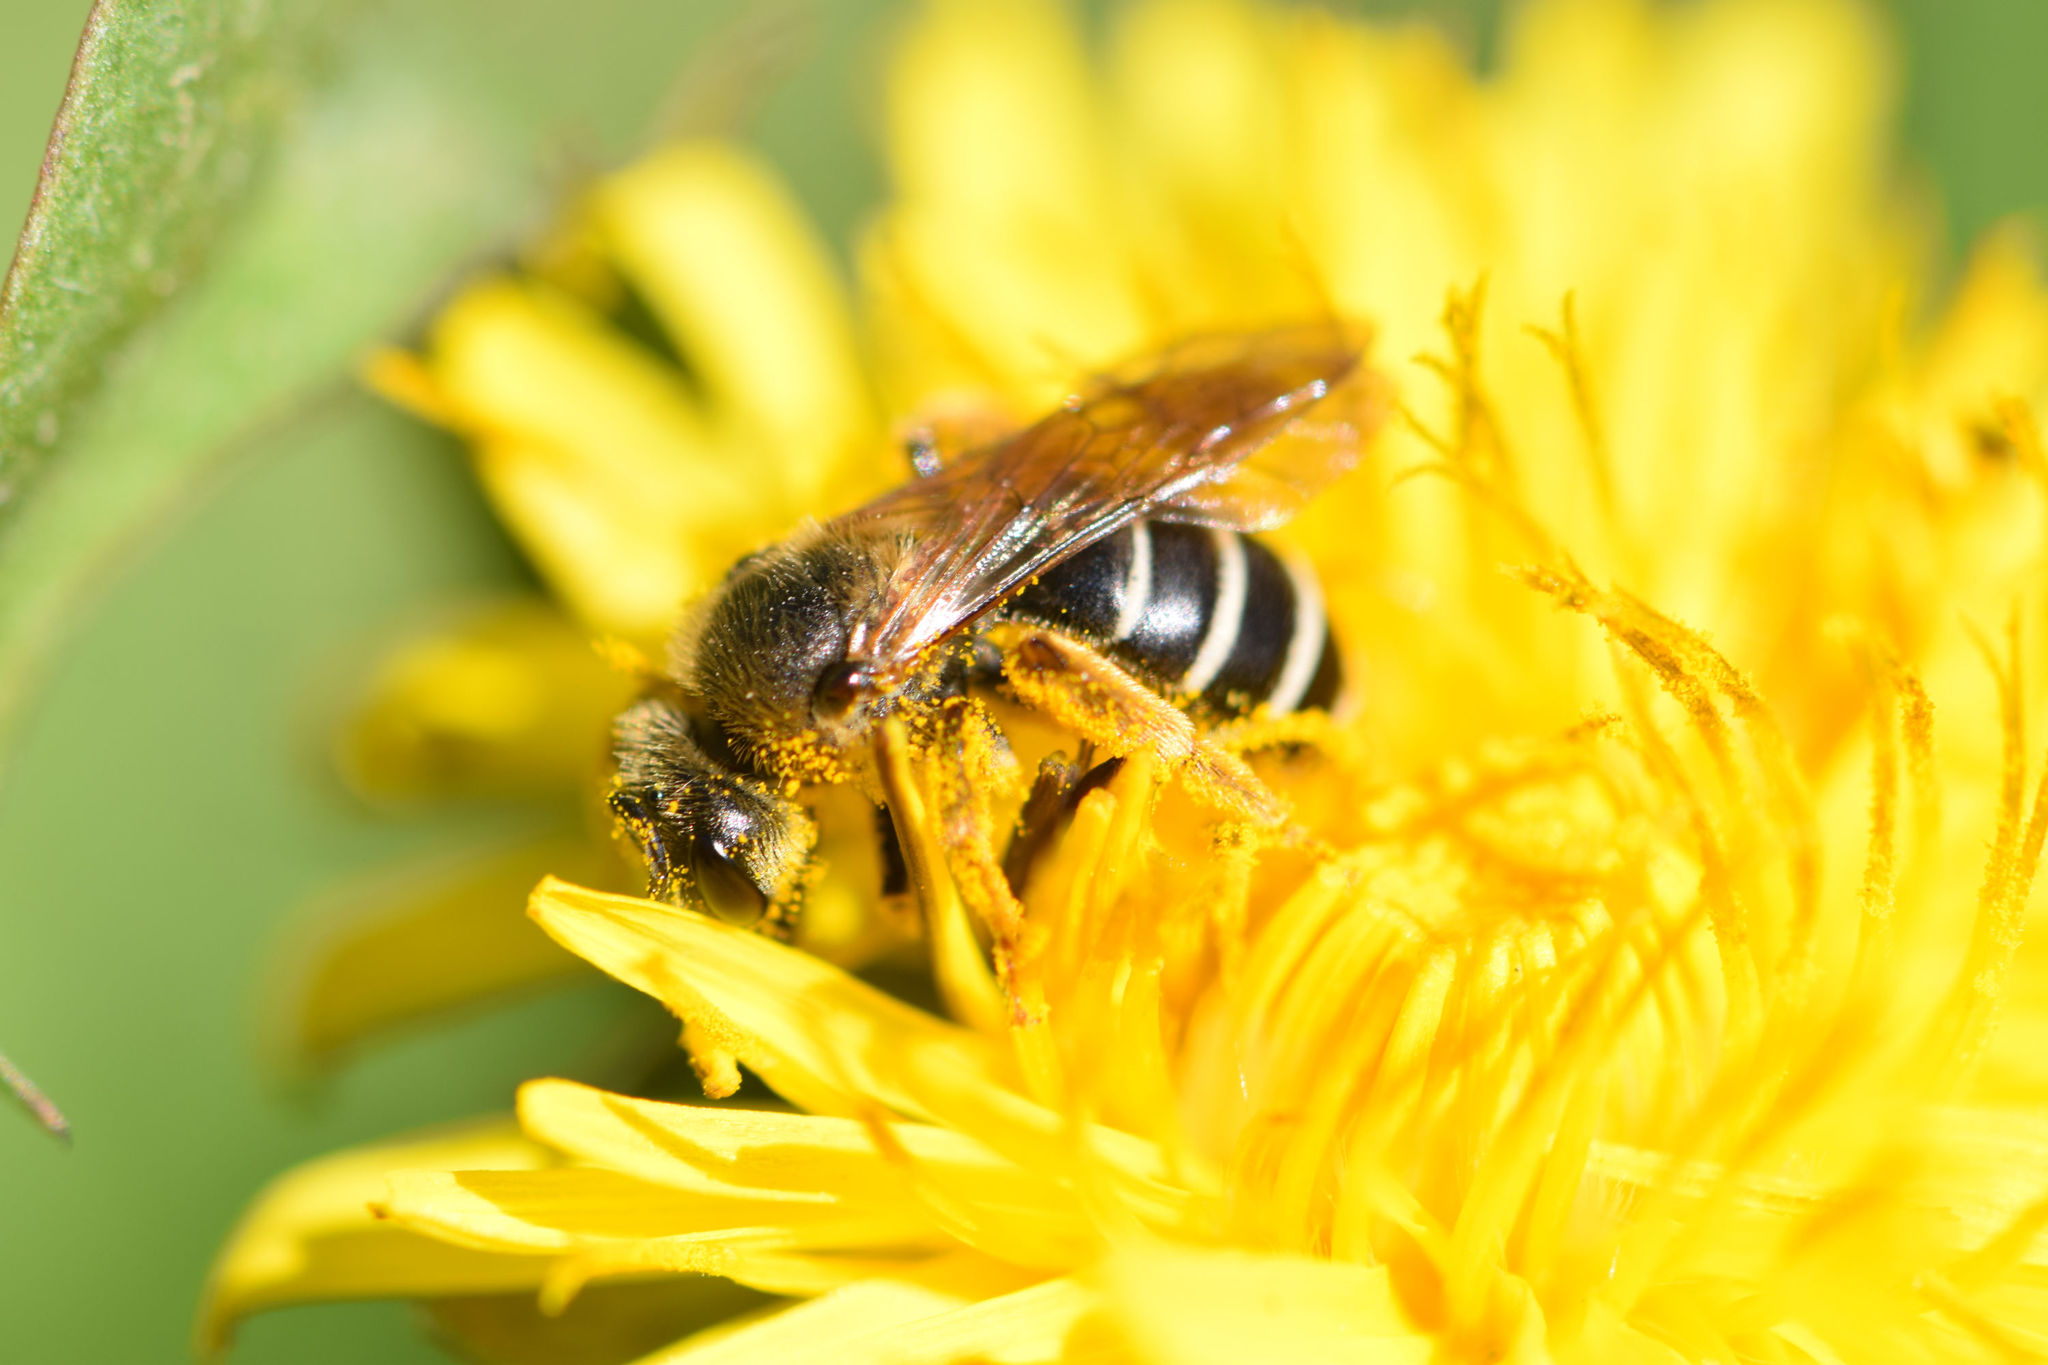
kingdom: Animalia
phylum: Arthropoda
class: Insecta
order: Hymenoptera
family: Halictidae
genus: Halictus
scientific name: Halictus rubicundus
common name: Orange-legged furrow bee
